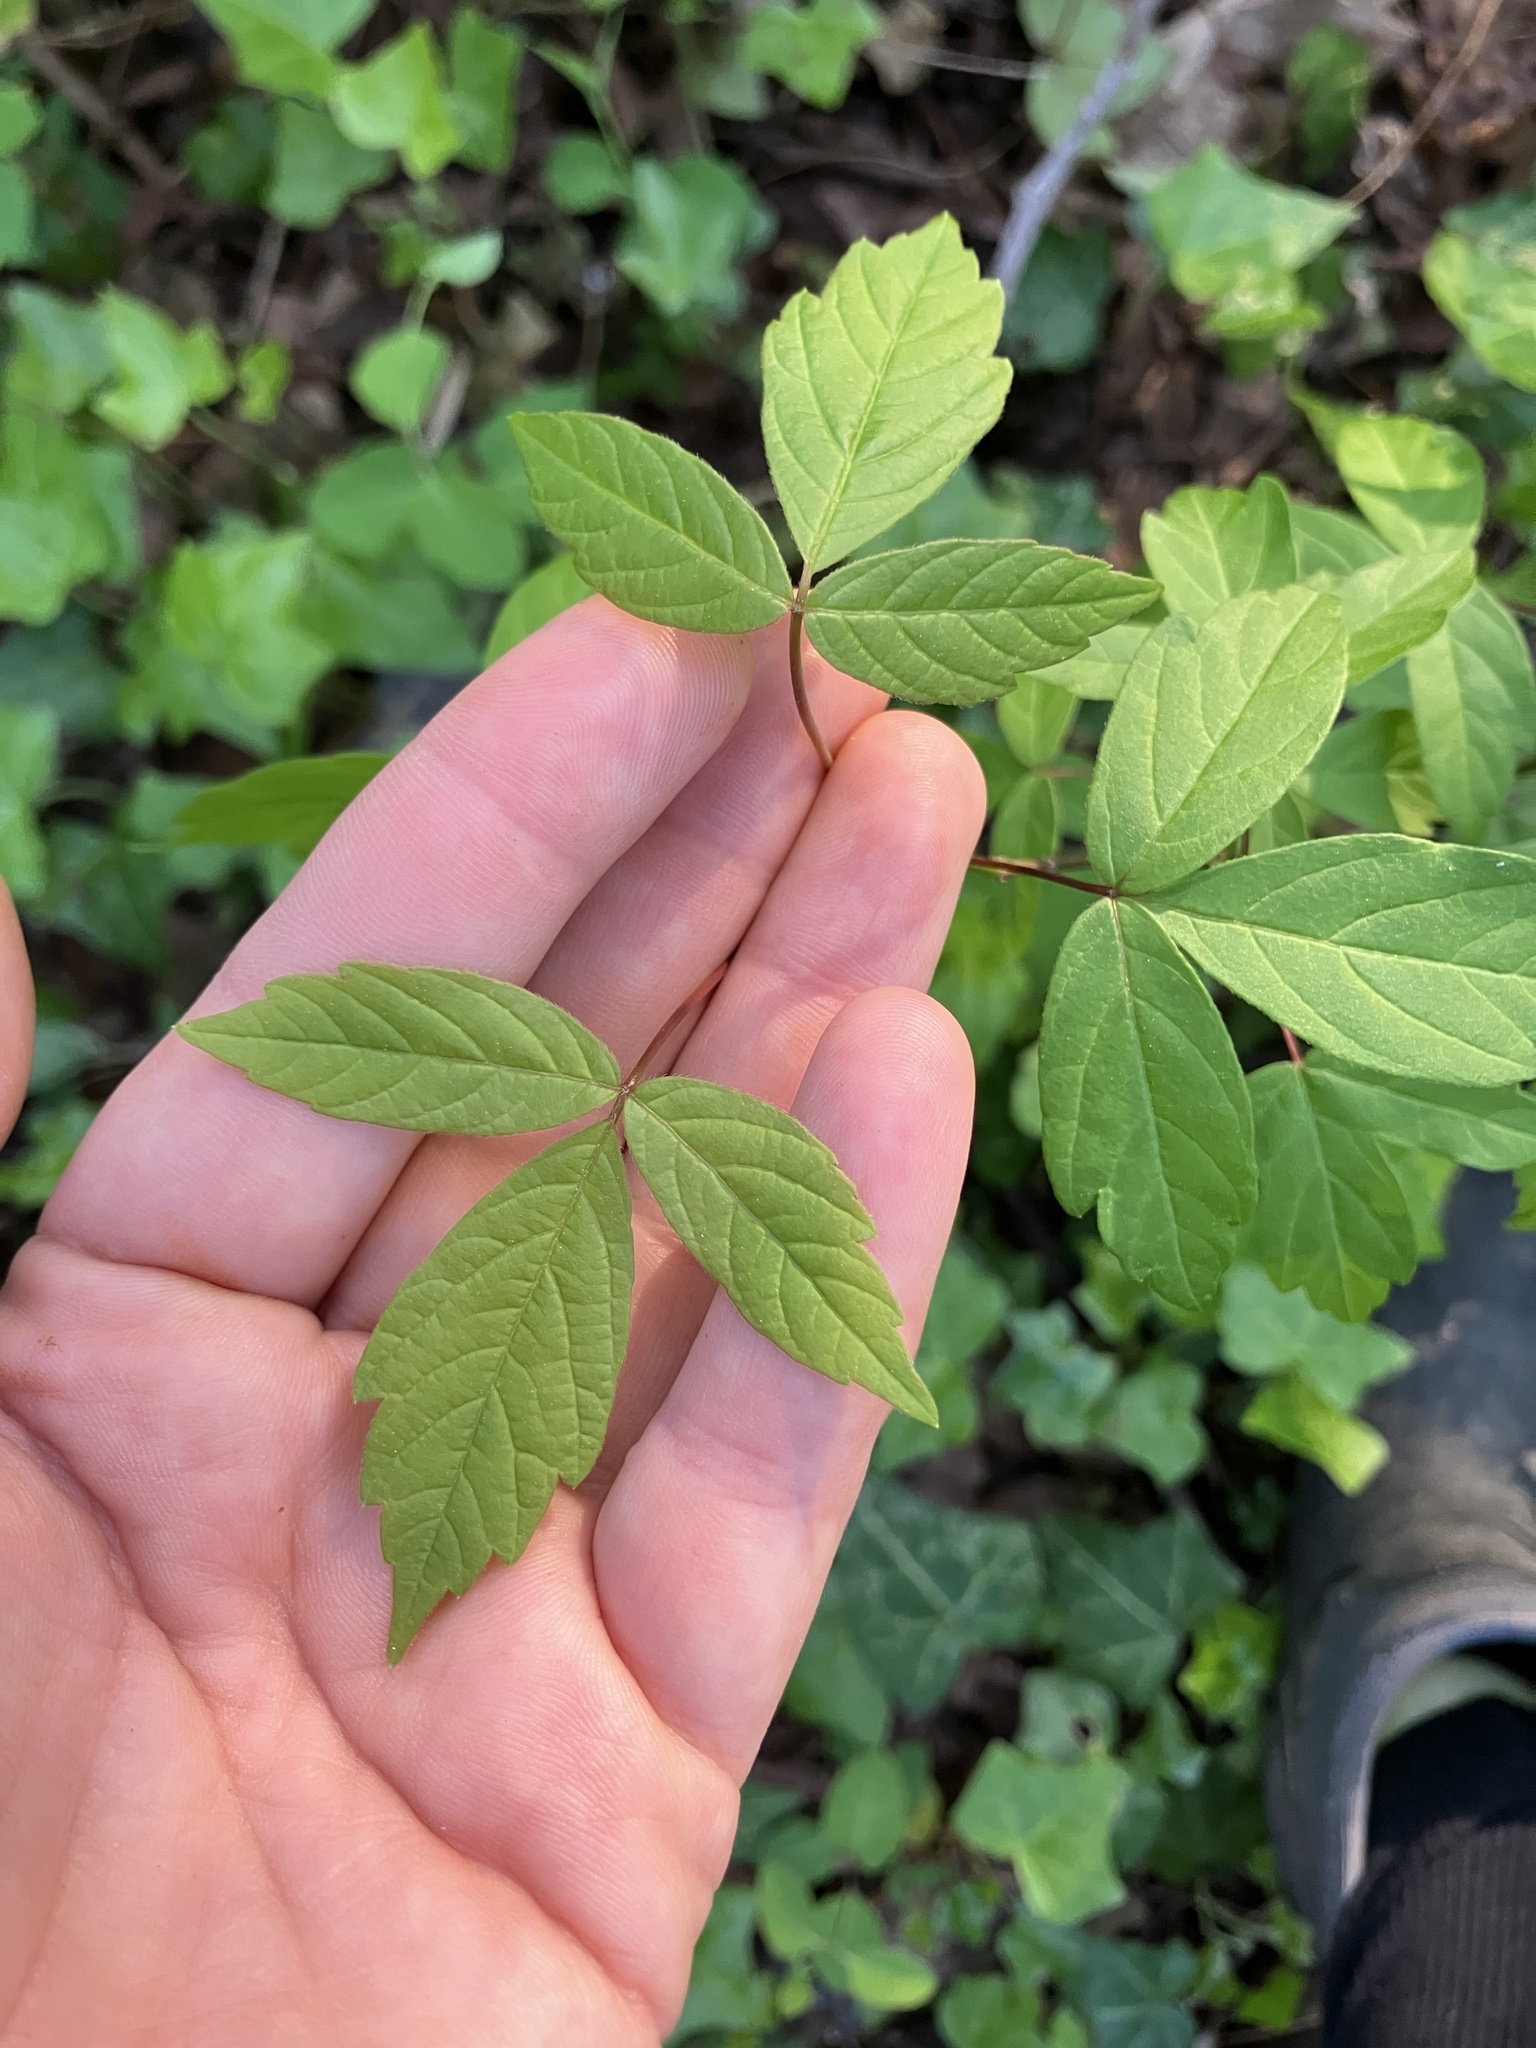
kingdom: Plantae
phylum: Tracheophyta
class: Magnoliopsida
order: Sapindales
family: Sapindaceae
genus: Acer
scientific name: Acer negundo
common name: Ashleaf maple
